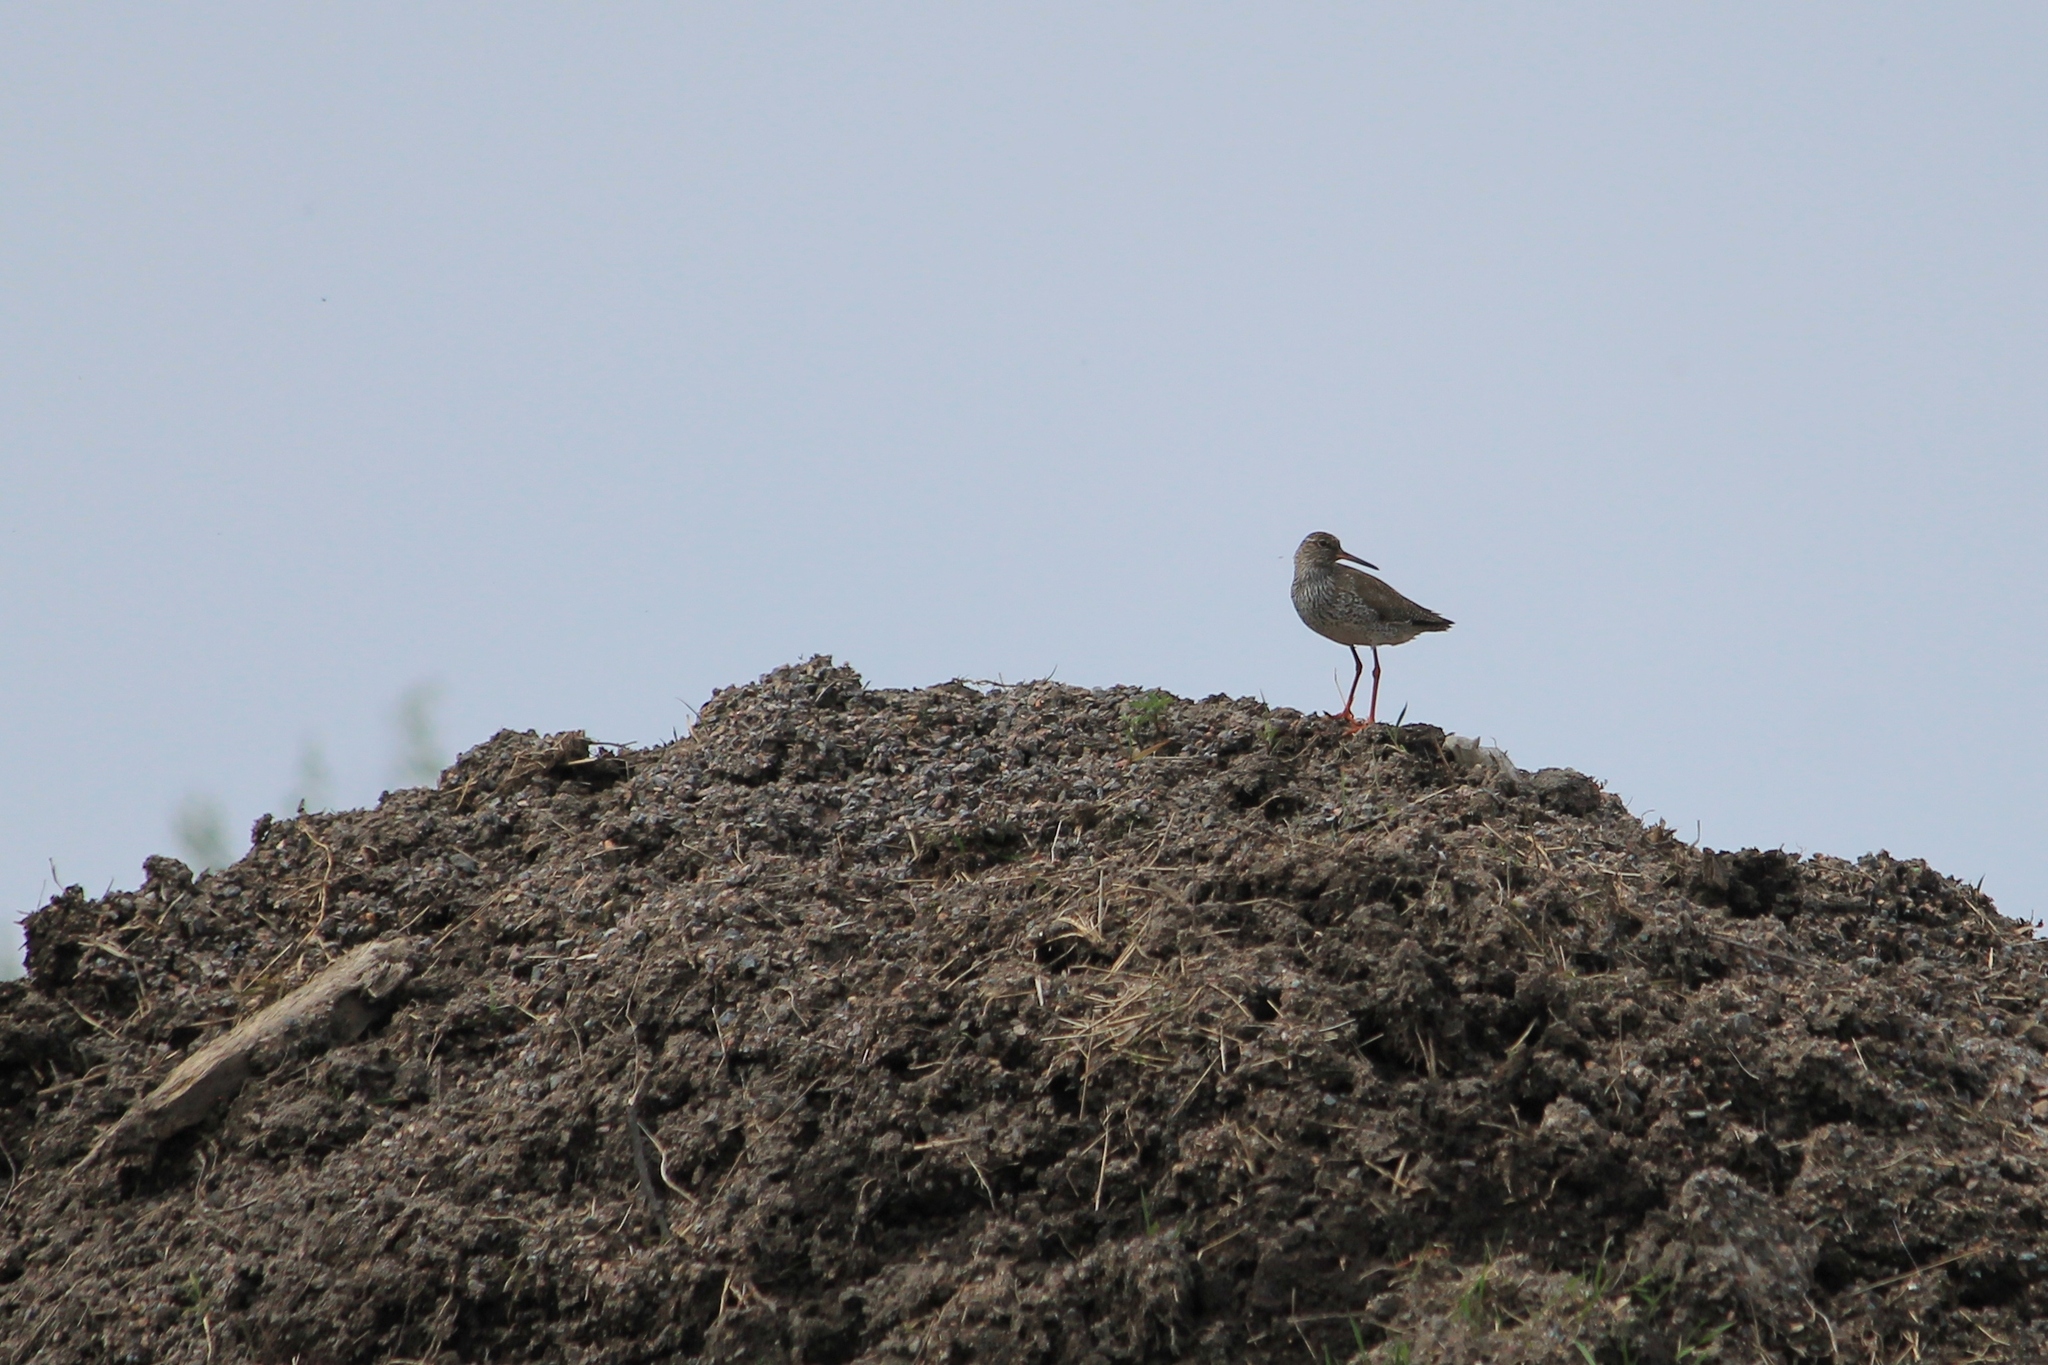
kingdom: Animalia
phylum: Chordata
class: Aves
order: Charadriiformes
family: Scolopacidae
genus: Tringa
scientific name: Tringa totanus
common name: Common redshank
